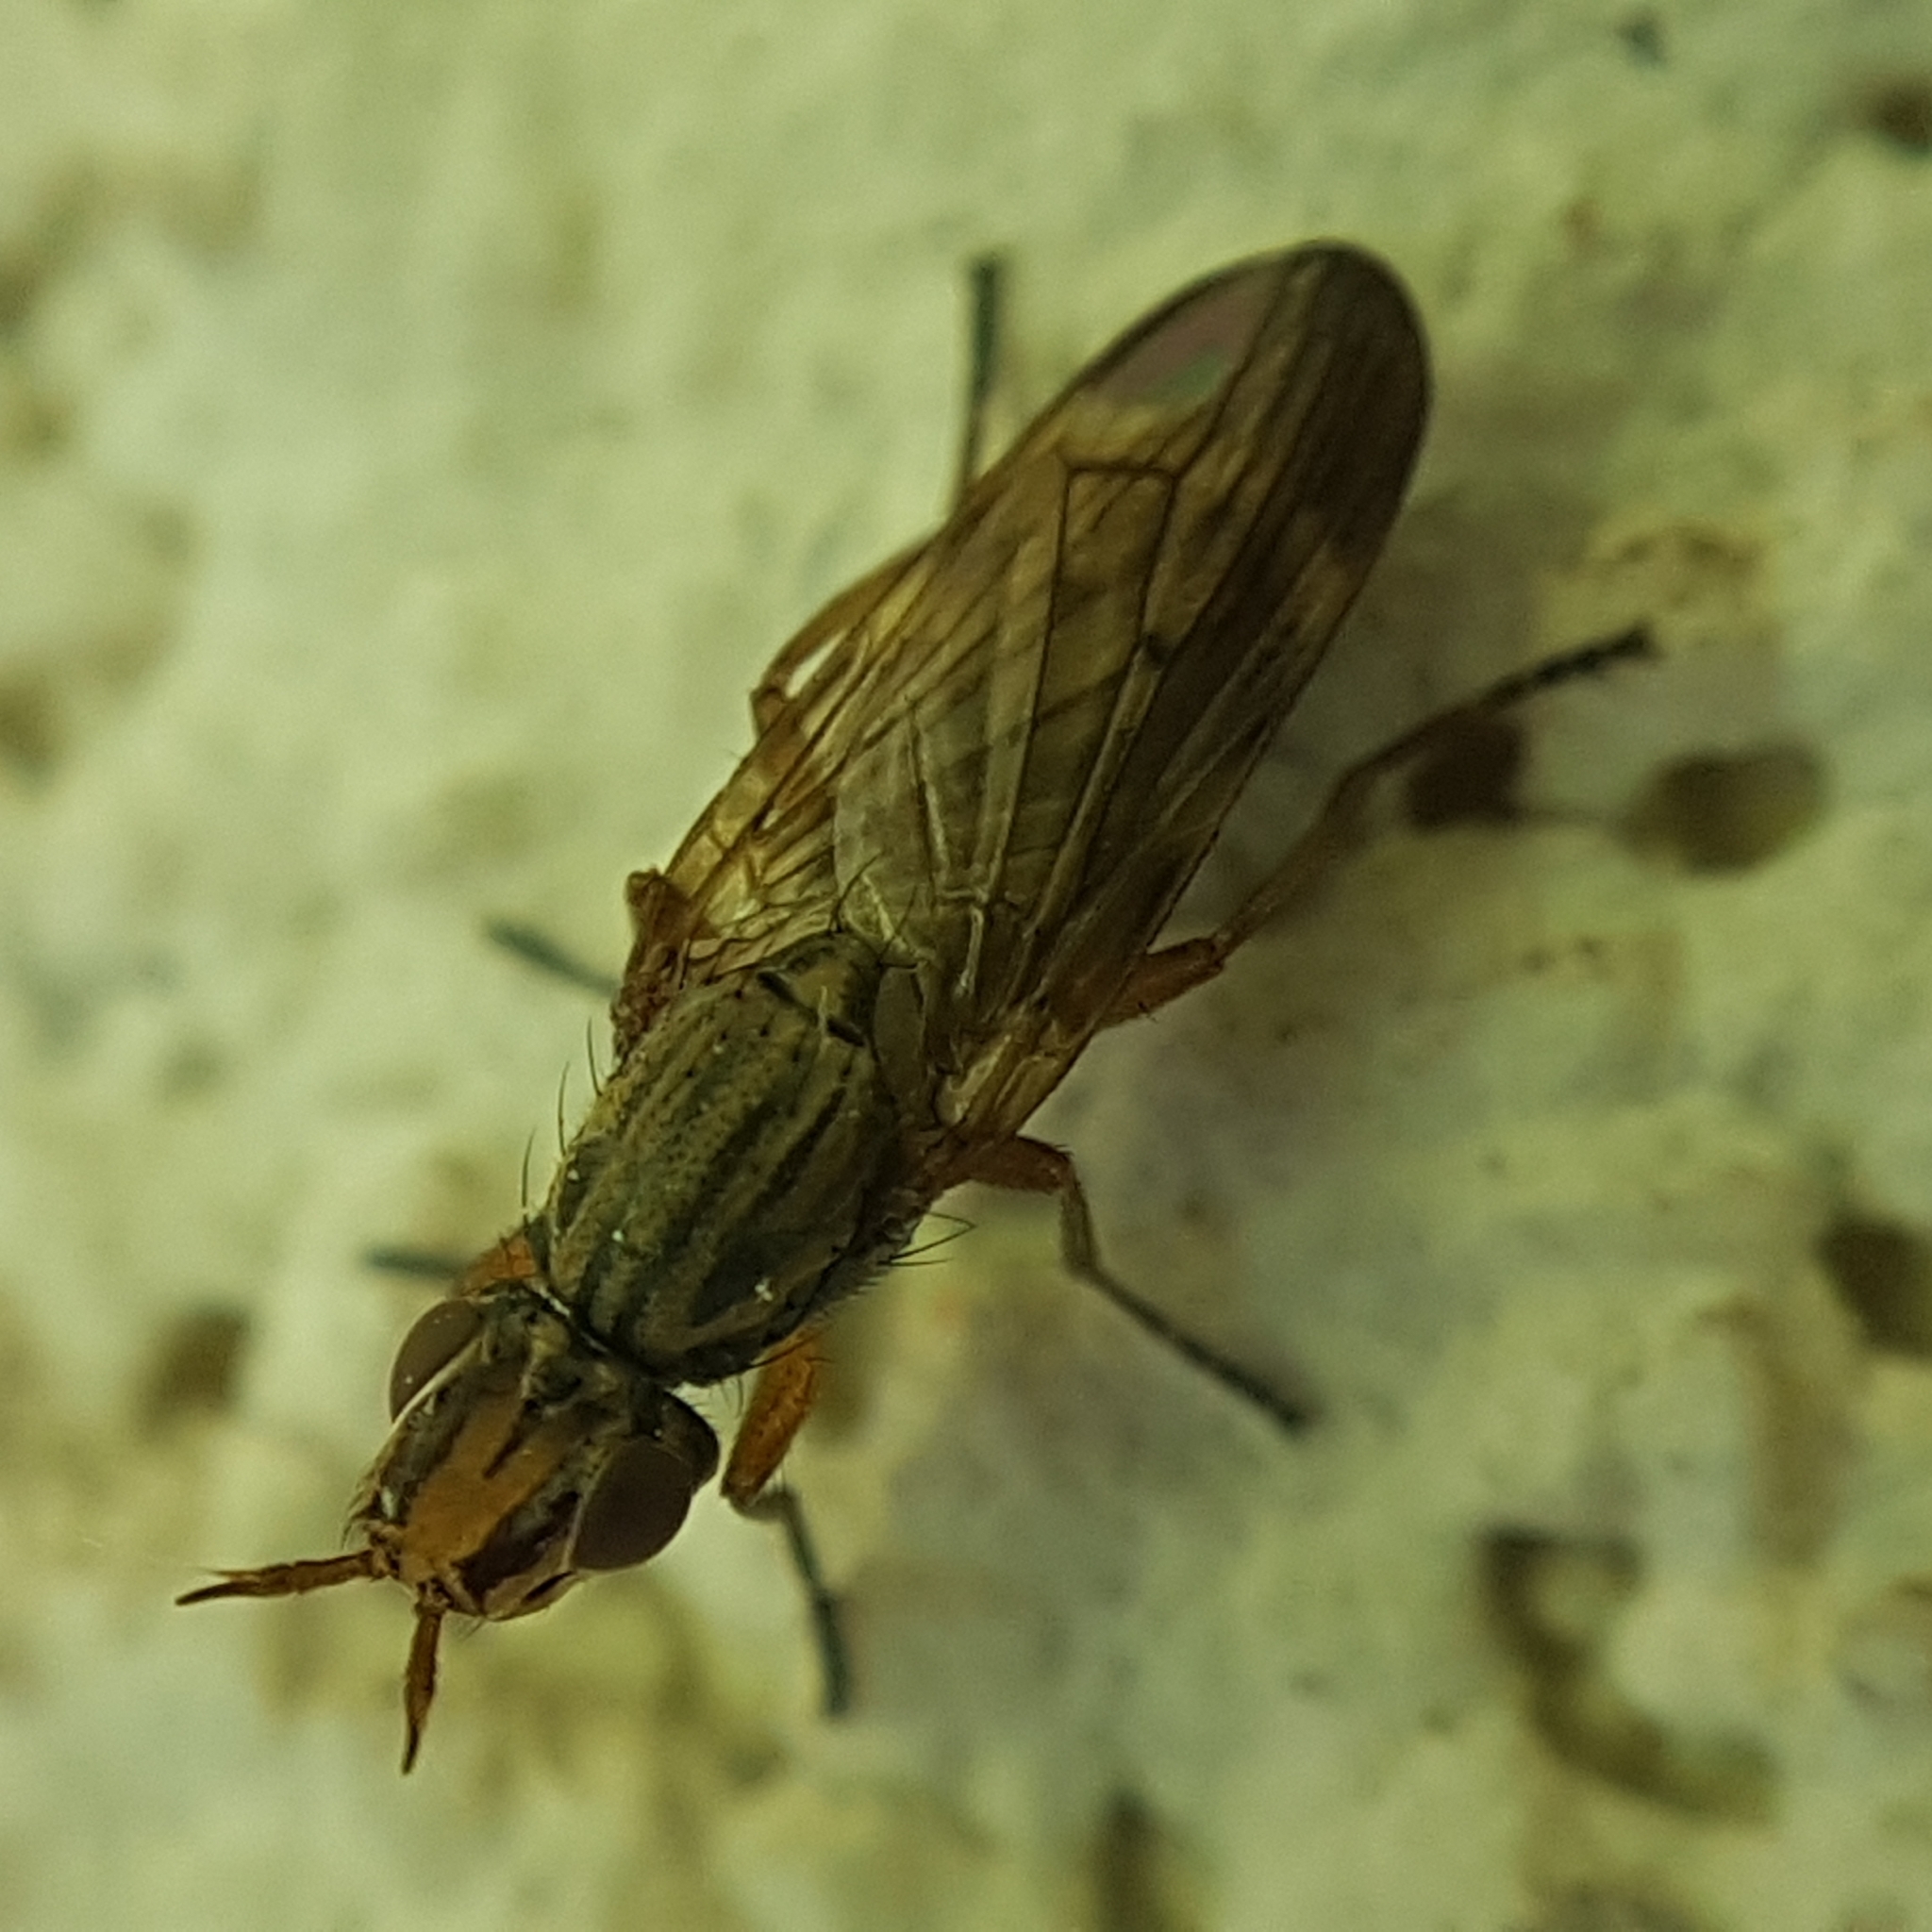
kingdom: Animalia
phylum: Arthropoda
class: Insecta
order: Diptera
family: Ulidiidae
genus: Dorycera
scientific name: Dorycera aquatica
